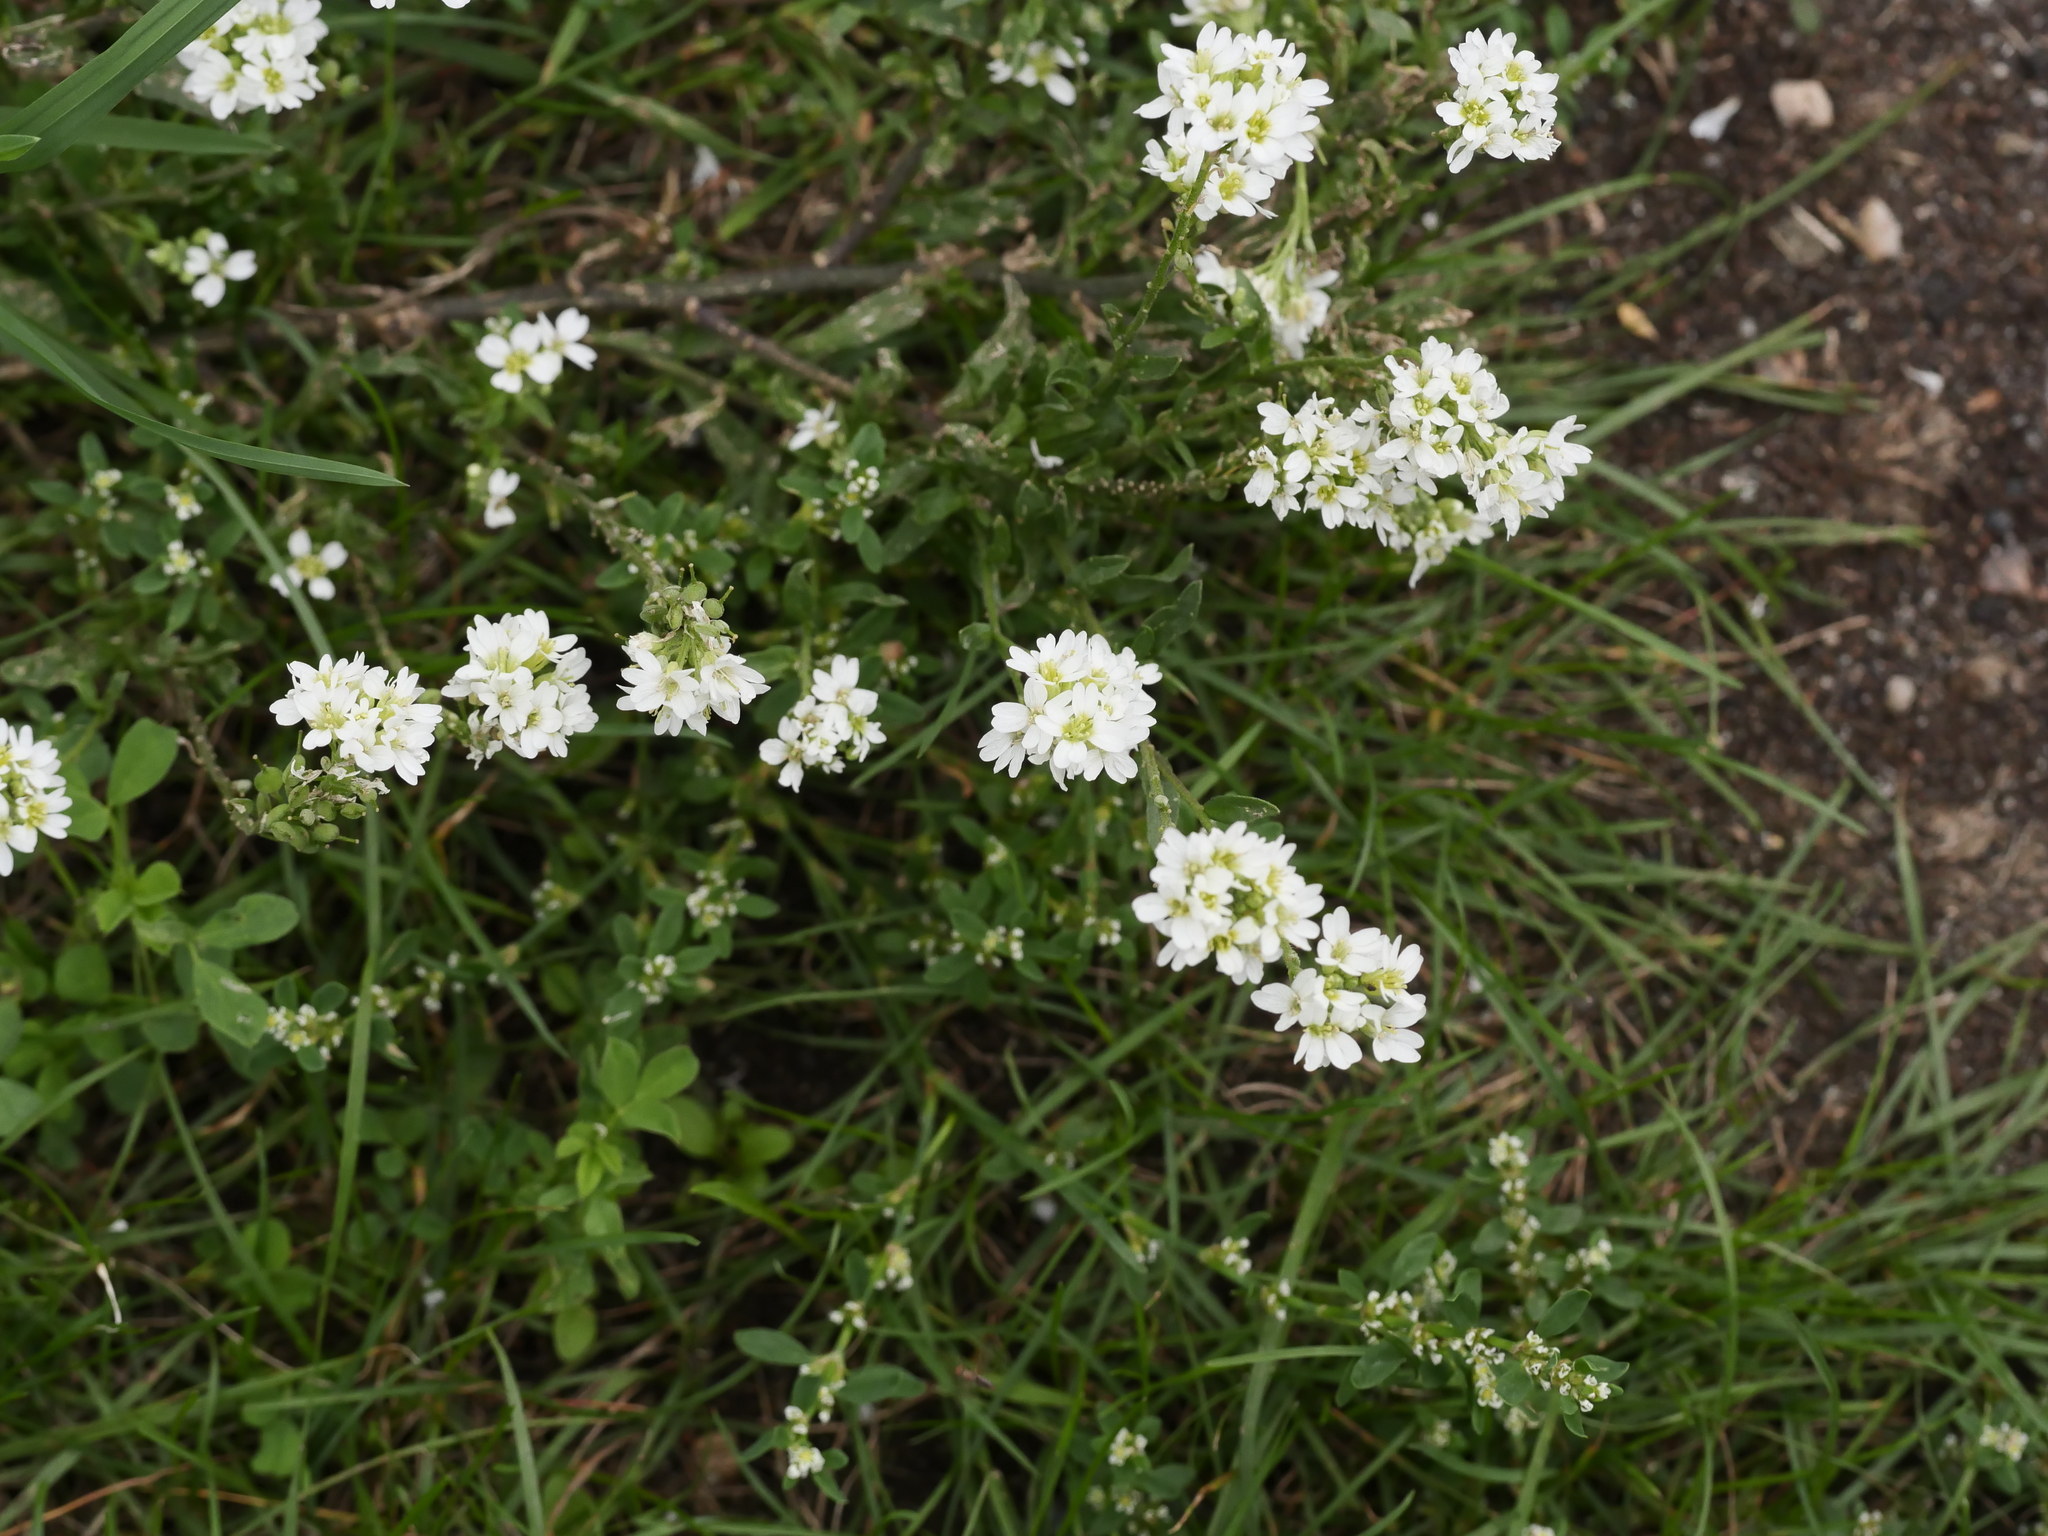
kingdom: Plantae
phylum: Tracheophyta
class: Magnoliopsida
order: Brassicales
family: Brassicaceae
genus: Berteroa
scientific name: Berteroa incana
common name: Hoary alison
